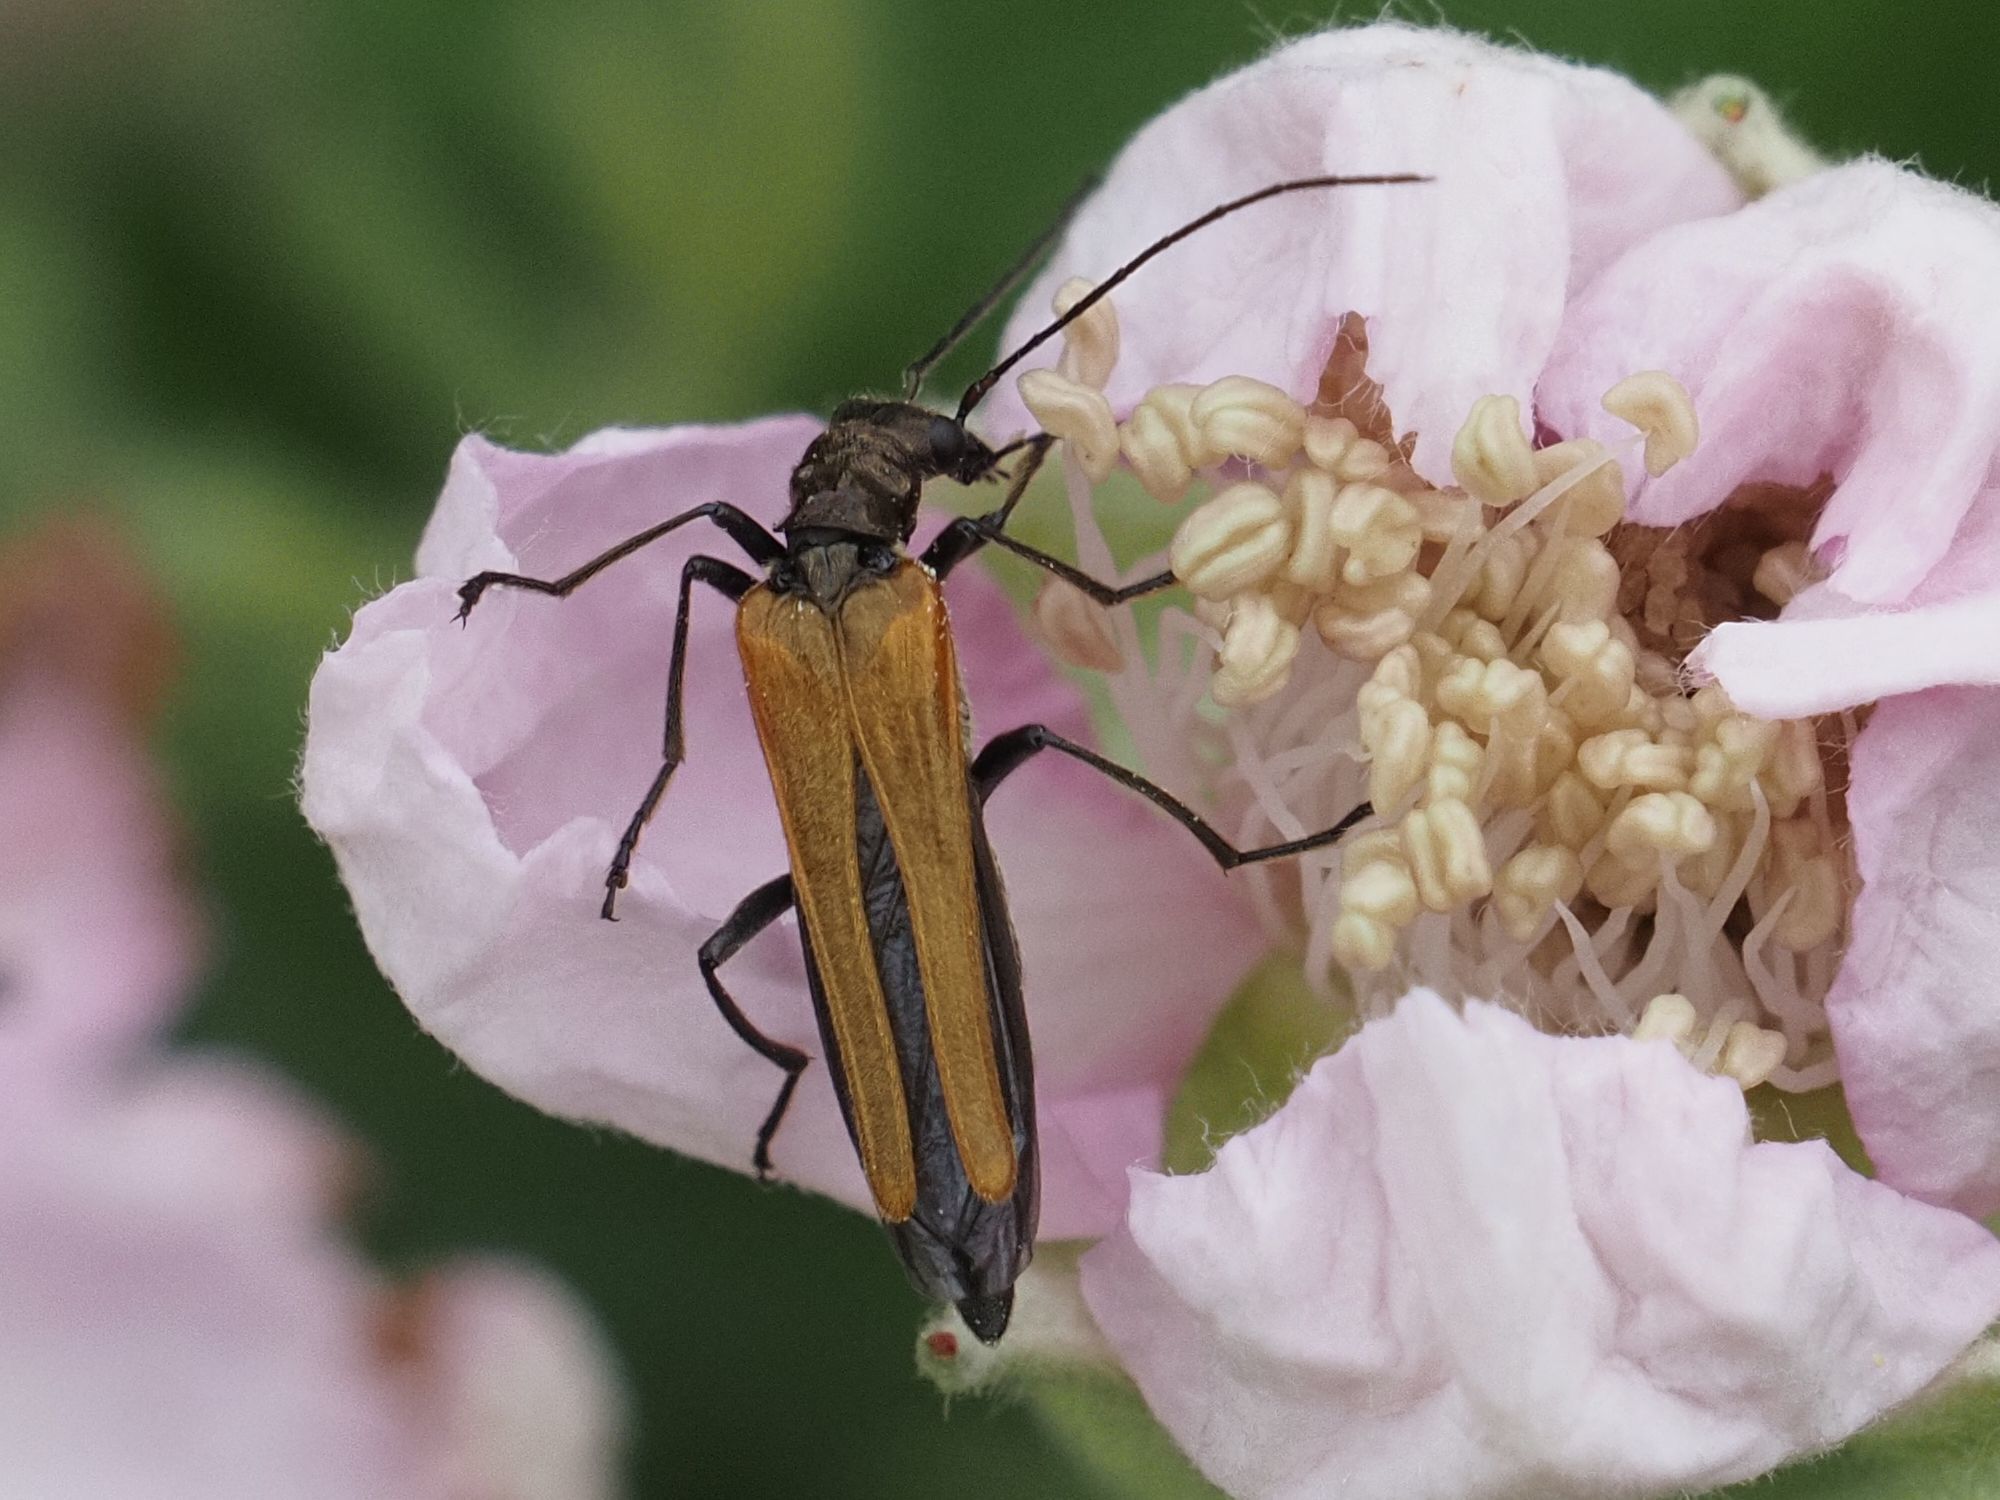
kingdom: Animalia
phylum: Arthropoda
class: Insecta
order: Coleoptera
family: Oedemeridae
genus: Oedemera
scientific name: Oedemera femorata
